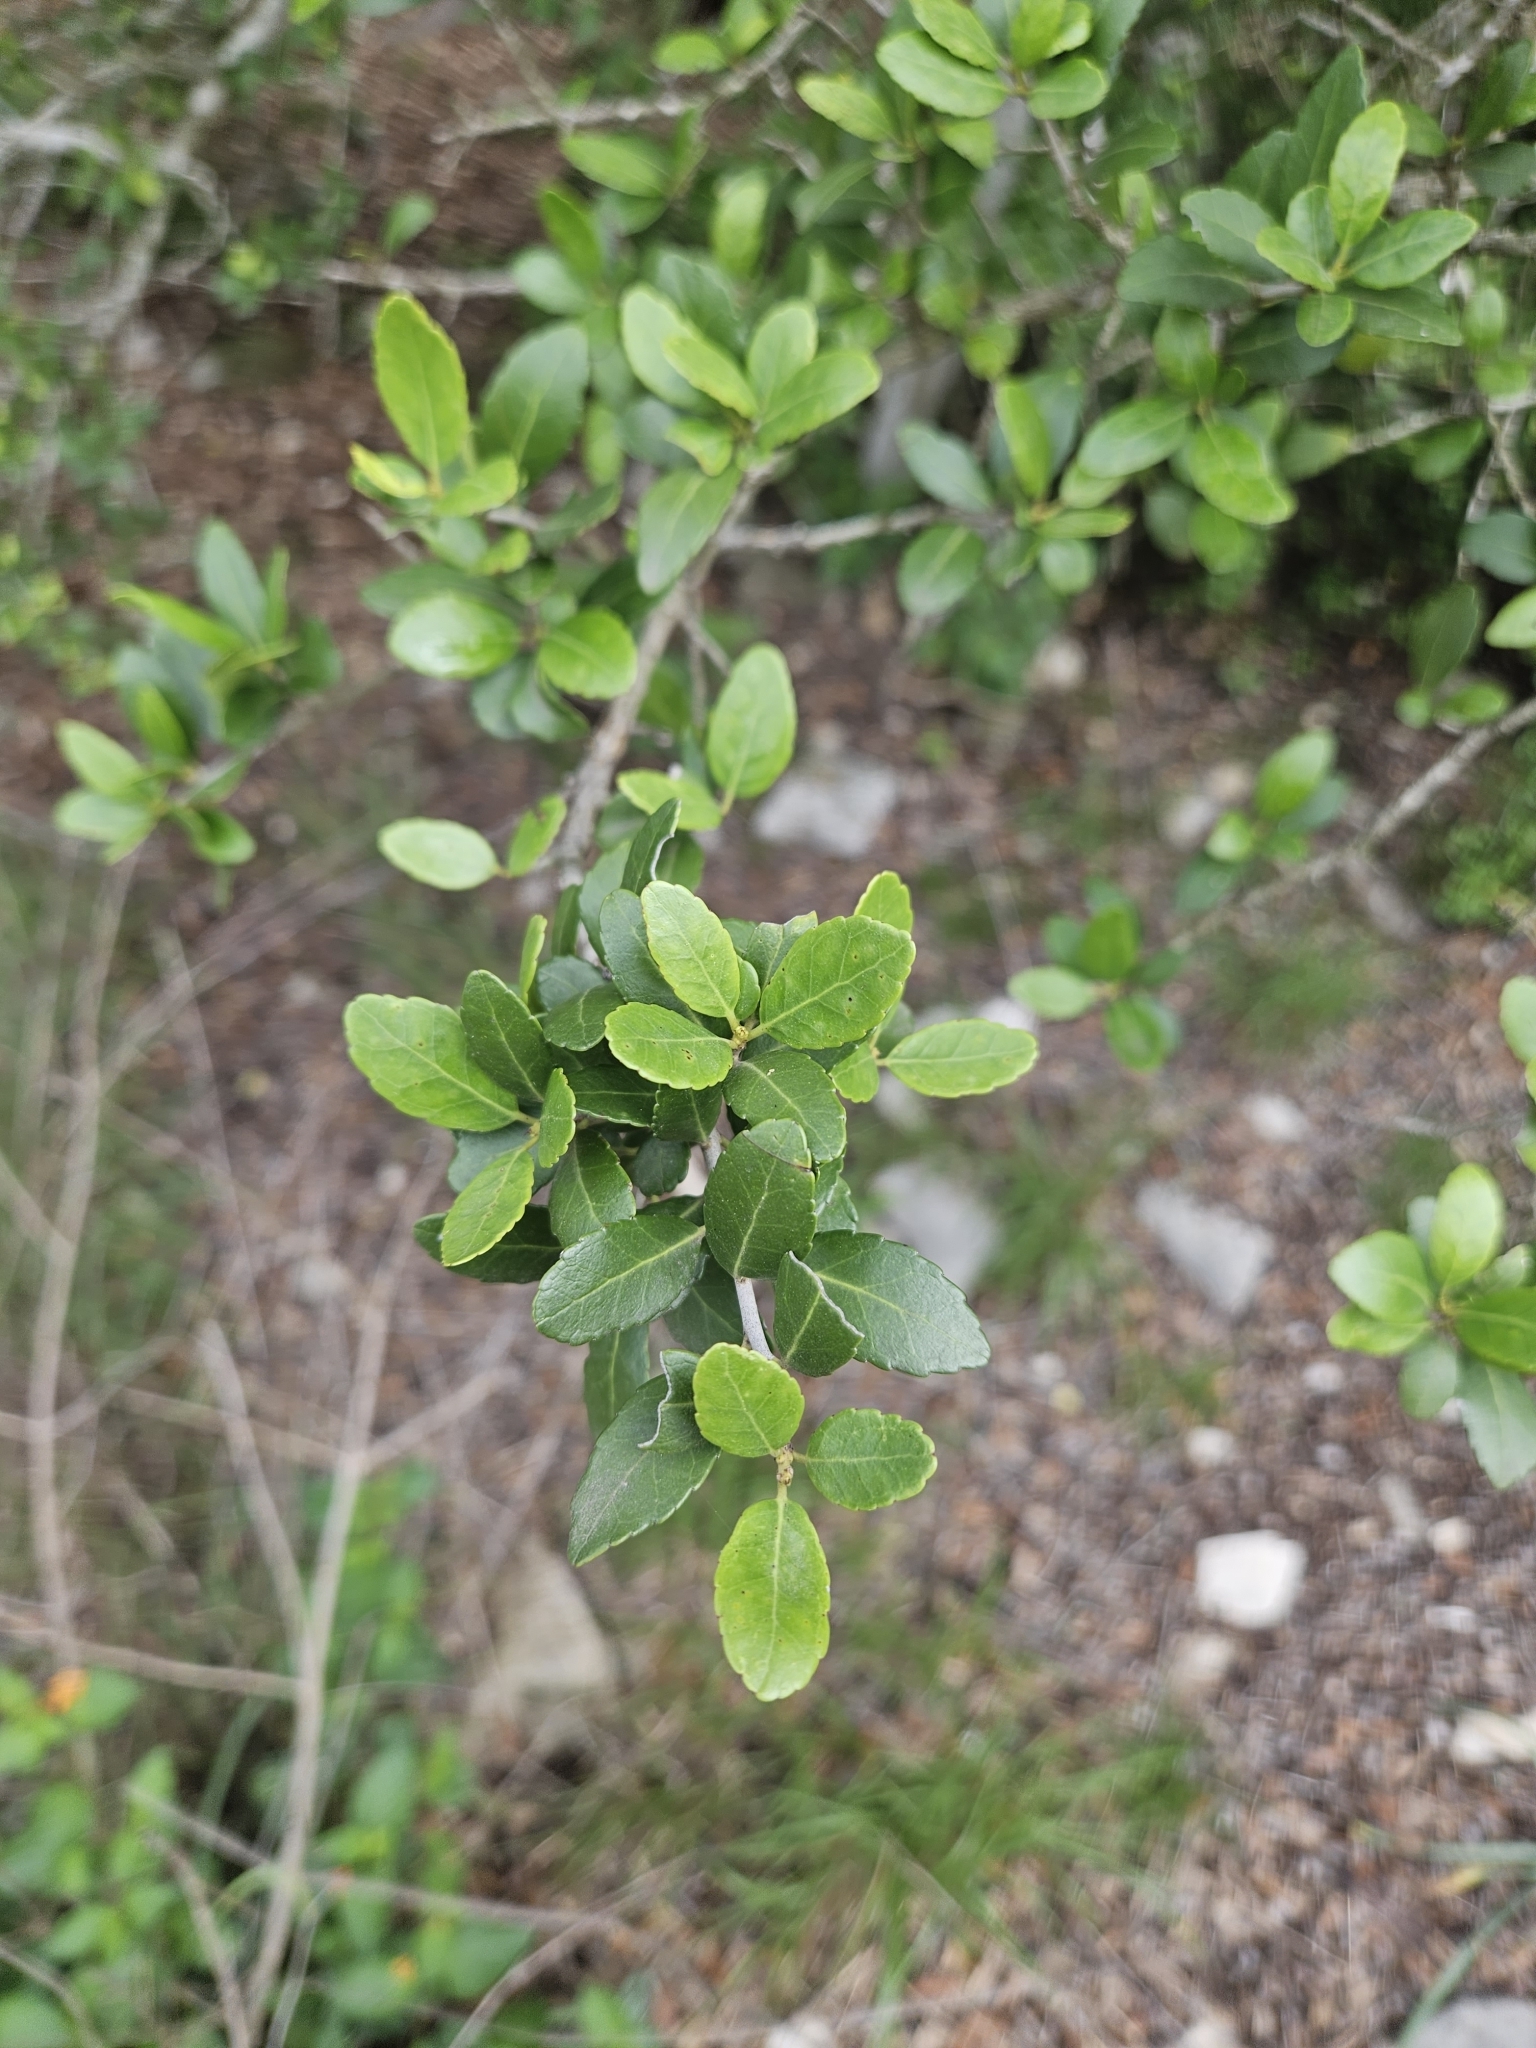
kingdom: Plantae
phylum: Tracheophyta
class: Magnoliopsida
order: Aquifoliales
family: Aquifoliaceae
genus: Ilex
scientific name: Ilex vomitoria
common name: Yaupon holly
